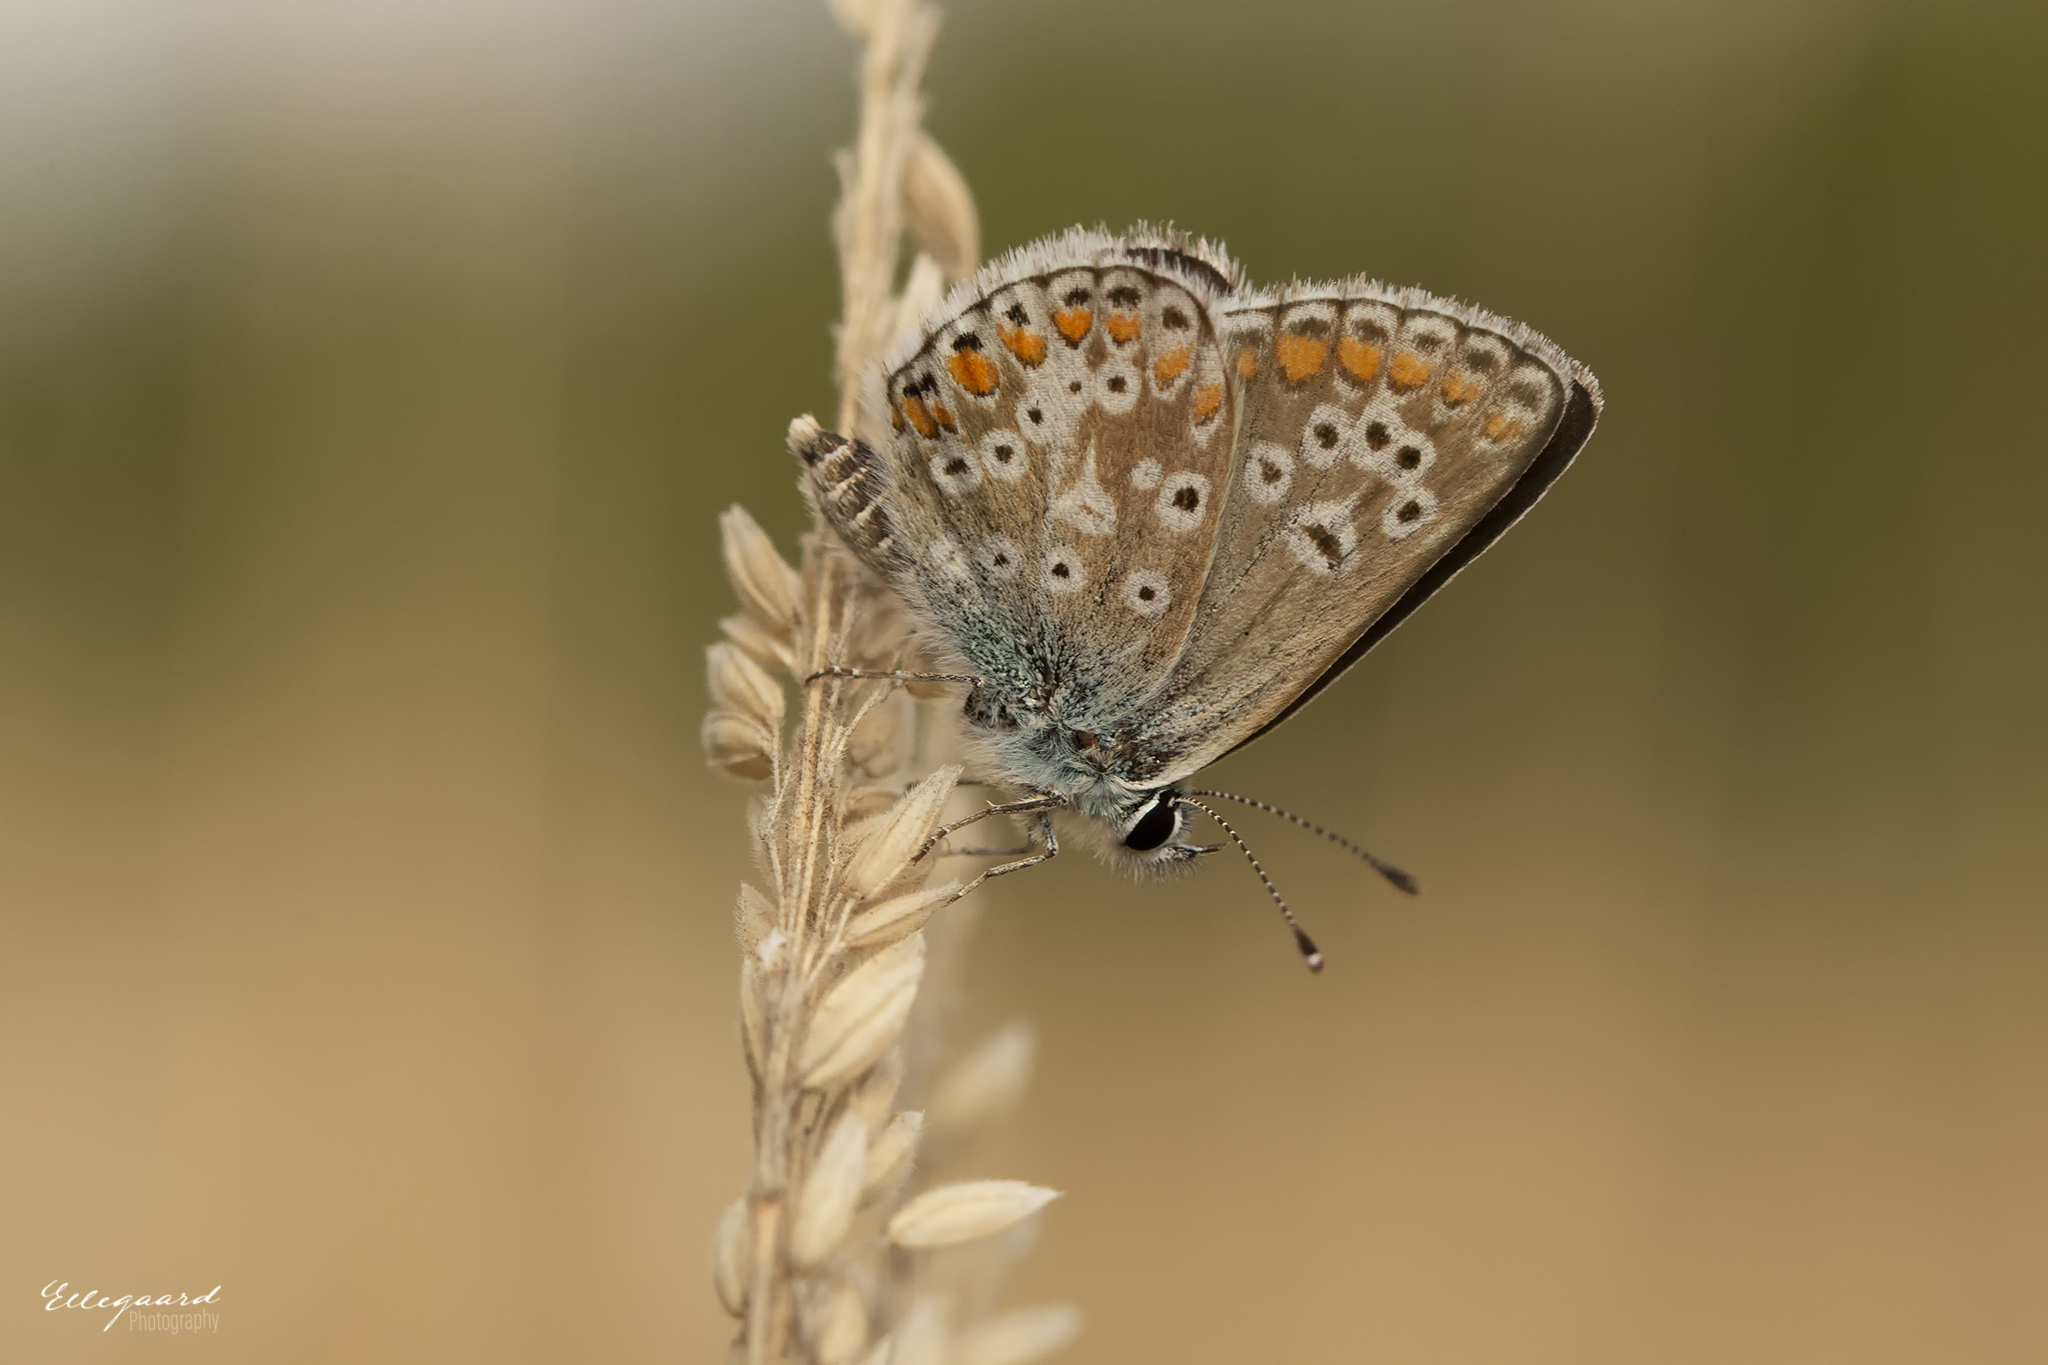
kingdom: Animalia
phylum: Arthropoda
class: Insecta
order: Lepidoptera
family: Lycaenidae
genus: Aricia
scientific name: Aricia agestis
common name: Brown argus
